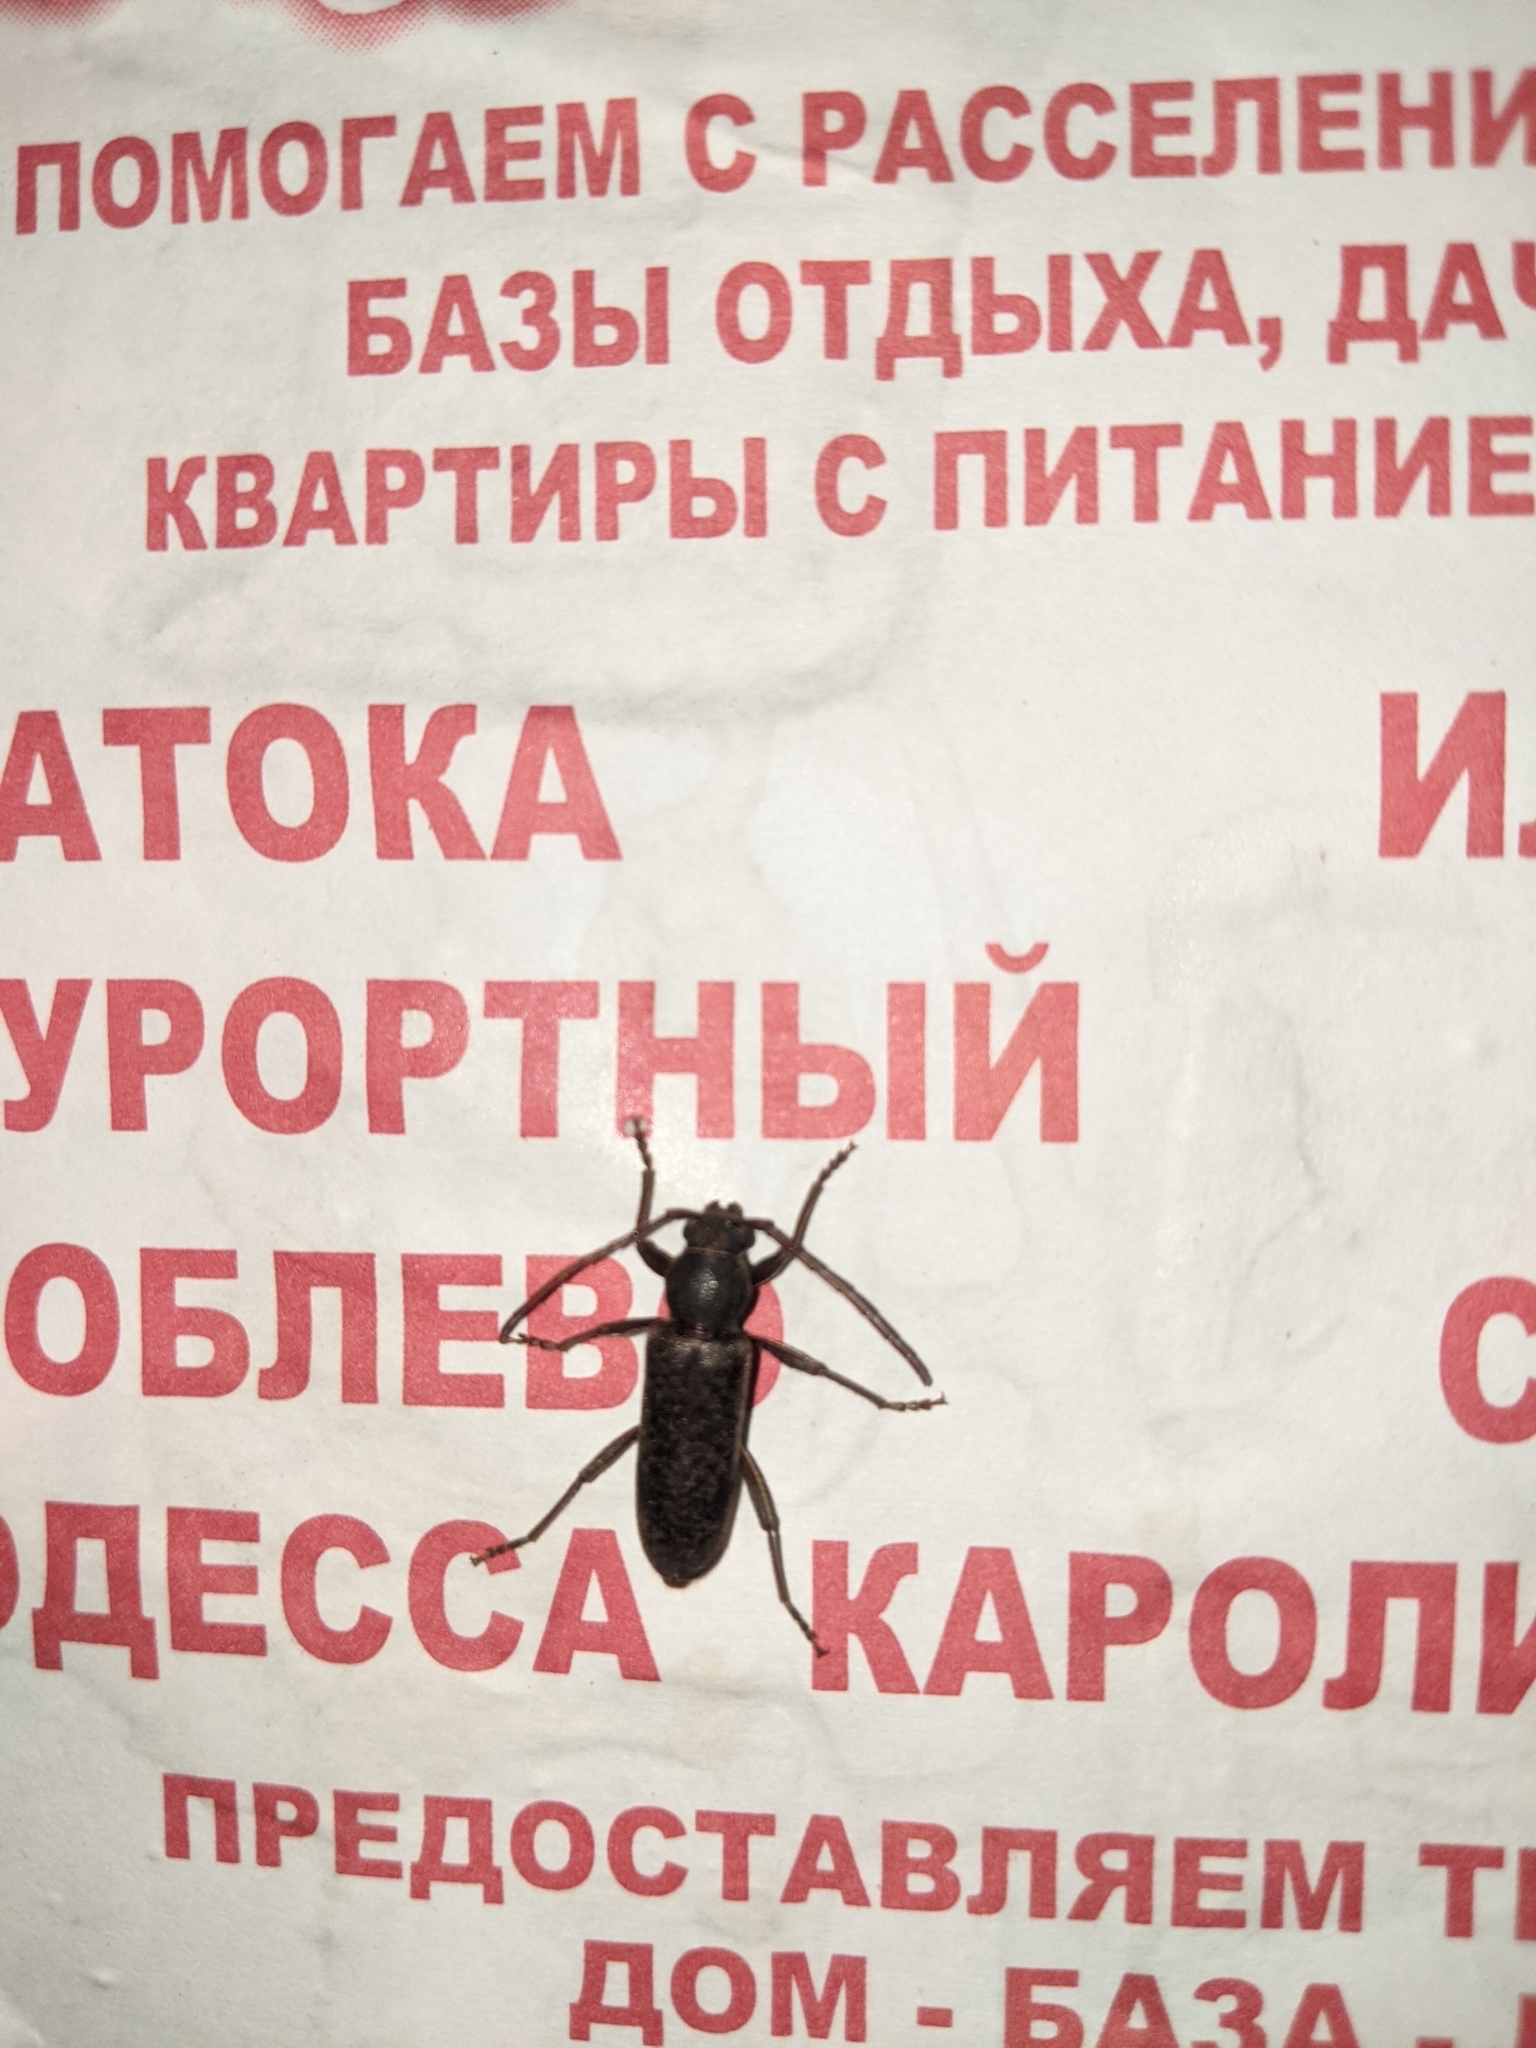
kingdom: Animalia
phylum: Arthropoda
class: Insecta
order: Coleoptera
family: Cerambycidae
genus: Trichoferus
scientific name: Trichoferus campestris
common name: Velvet long horned beetle
